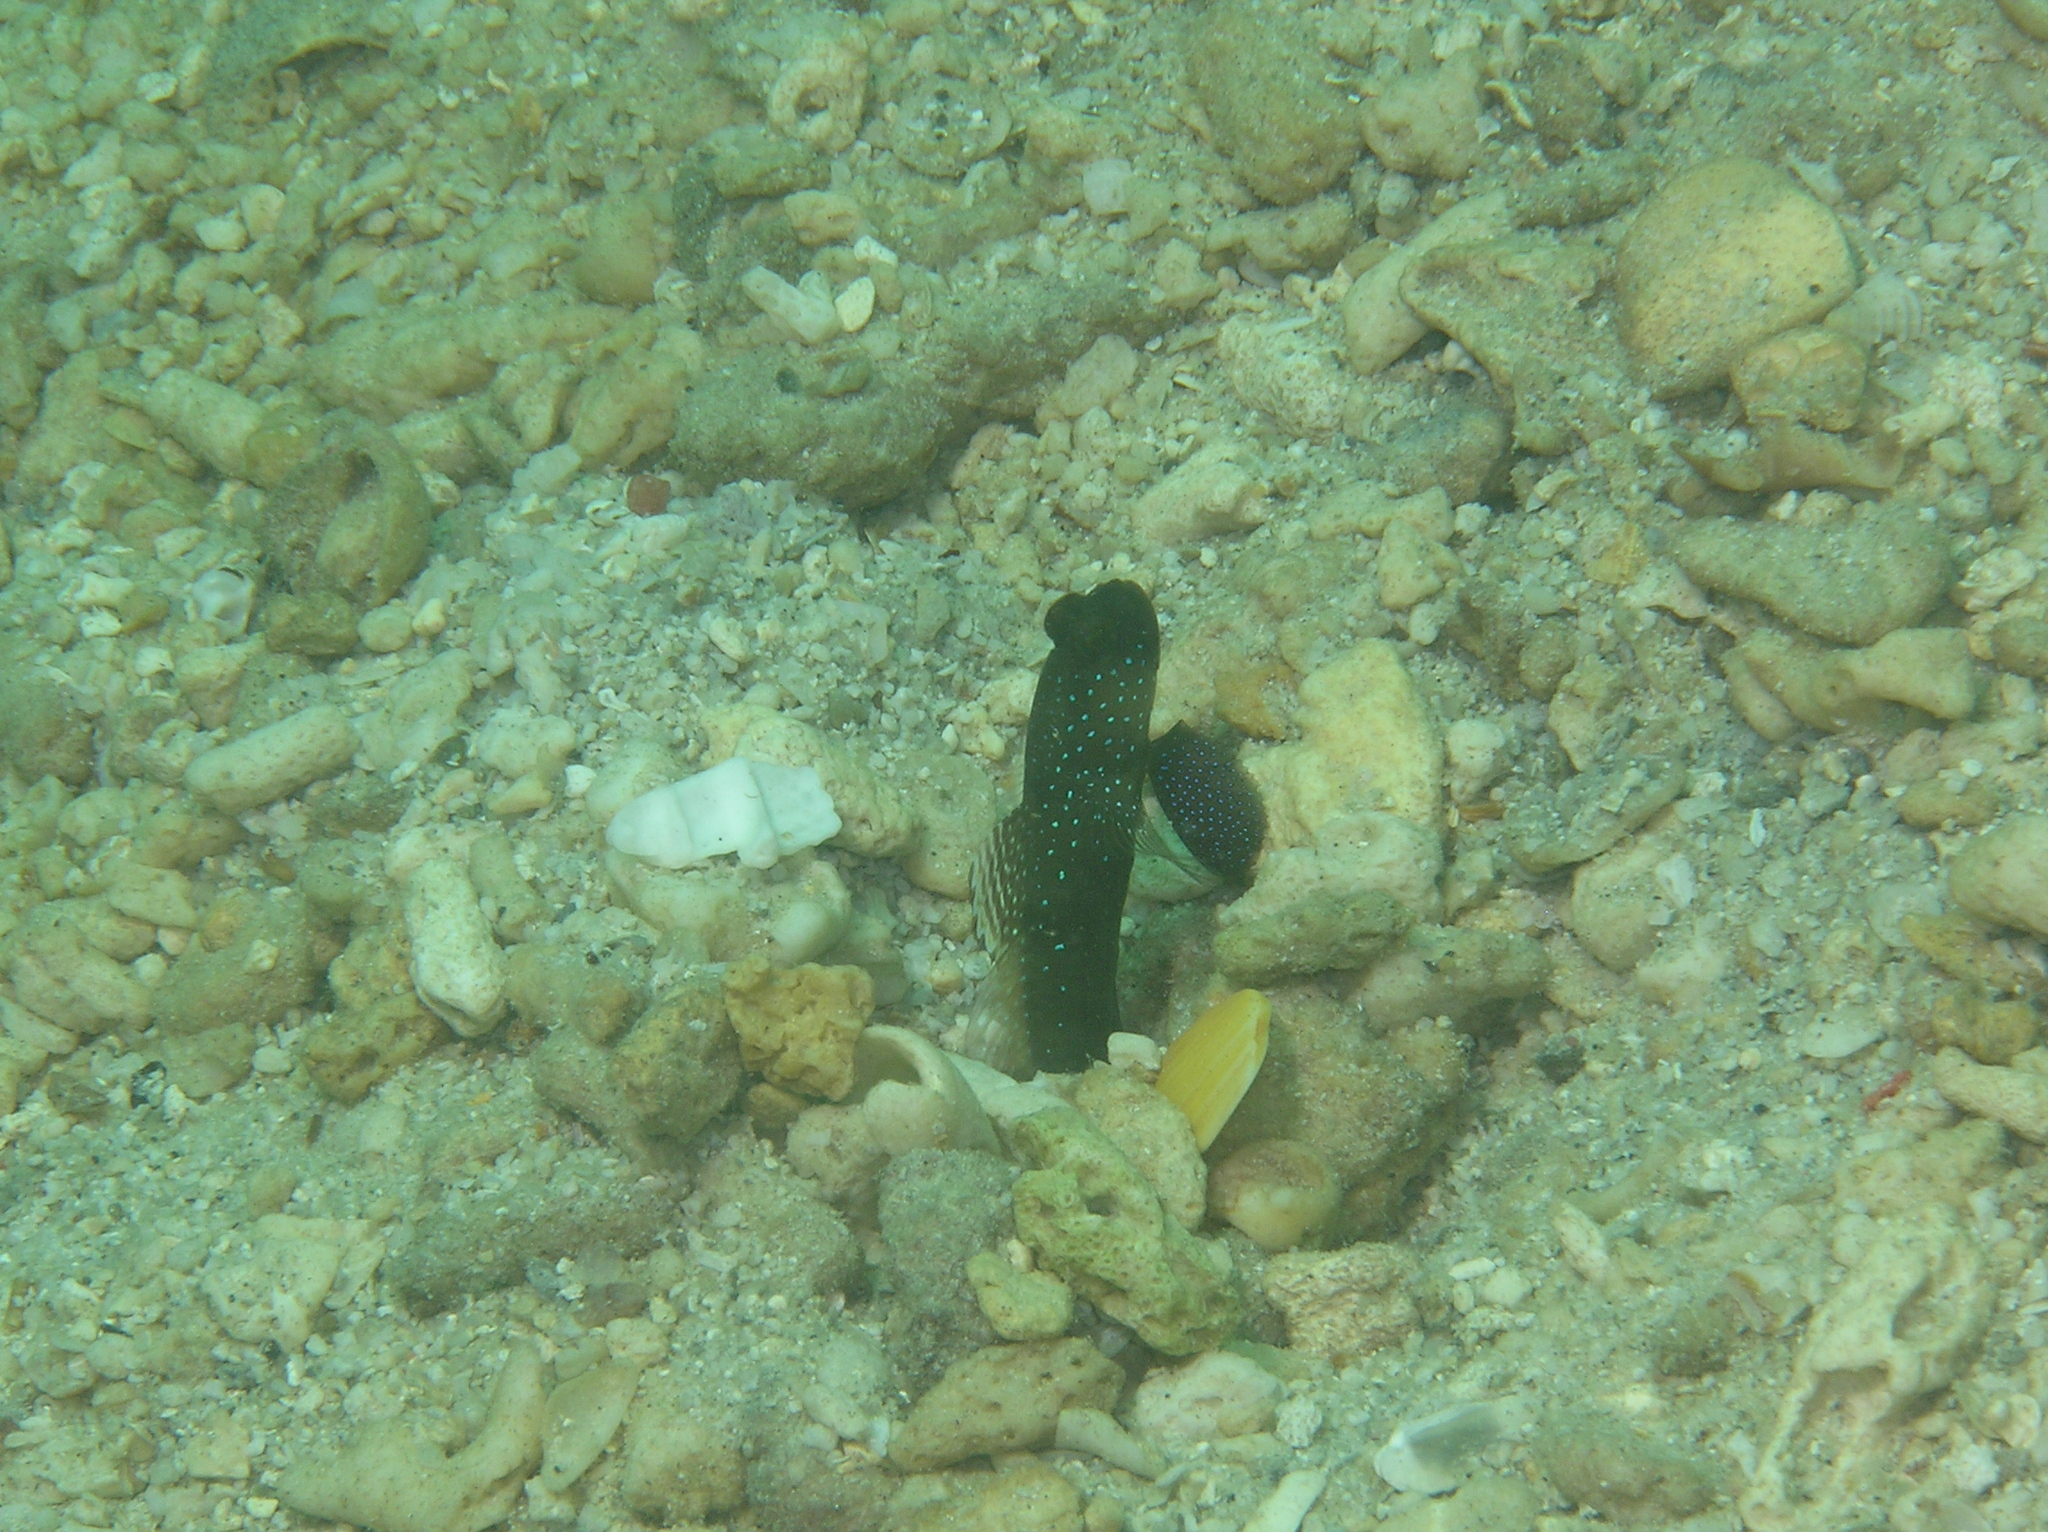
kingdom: Animalia
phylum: Chordata
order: Perciformes
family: Gobiidae
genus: Cryptocentrus
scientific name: Cryptocentrus cinctus
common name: Yellow shrimp goby
